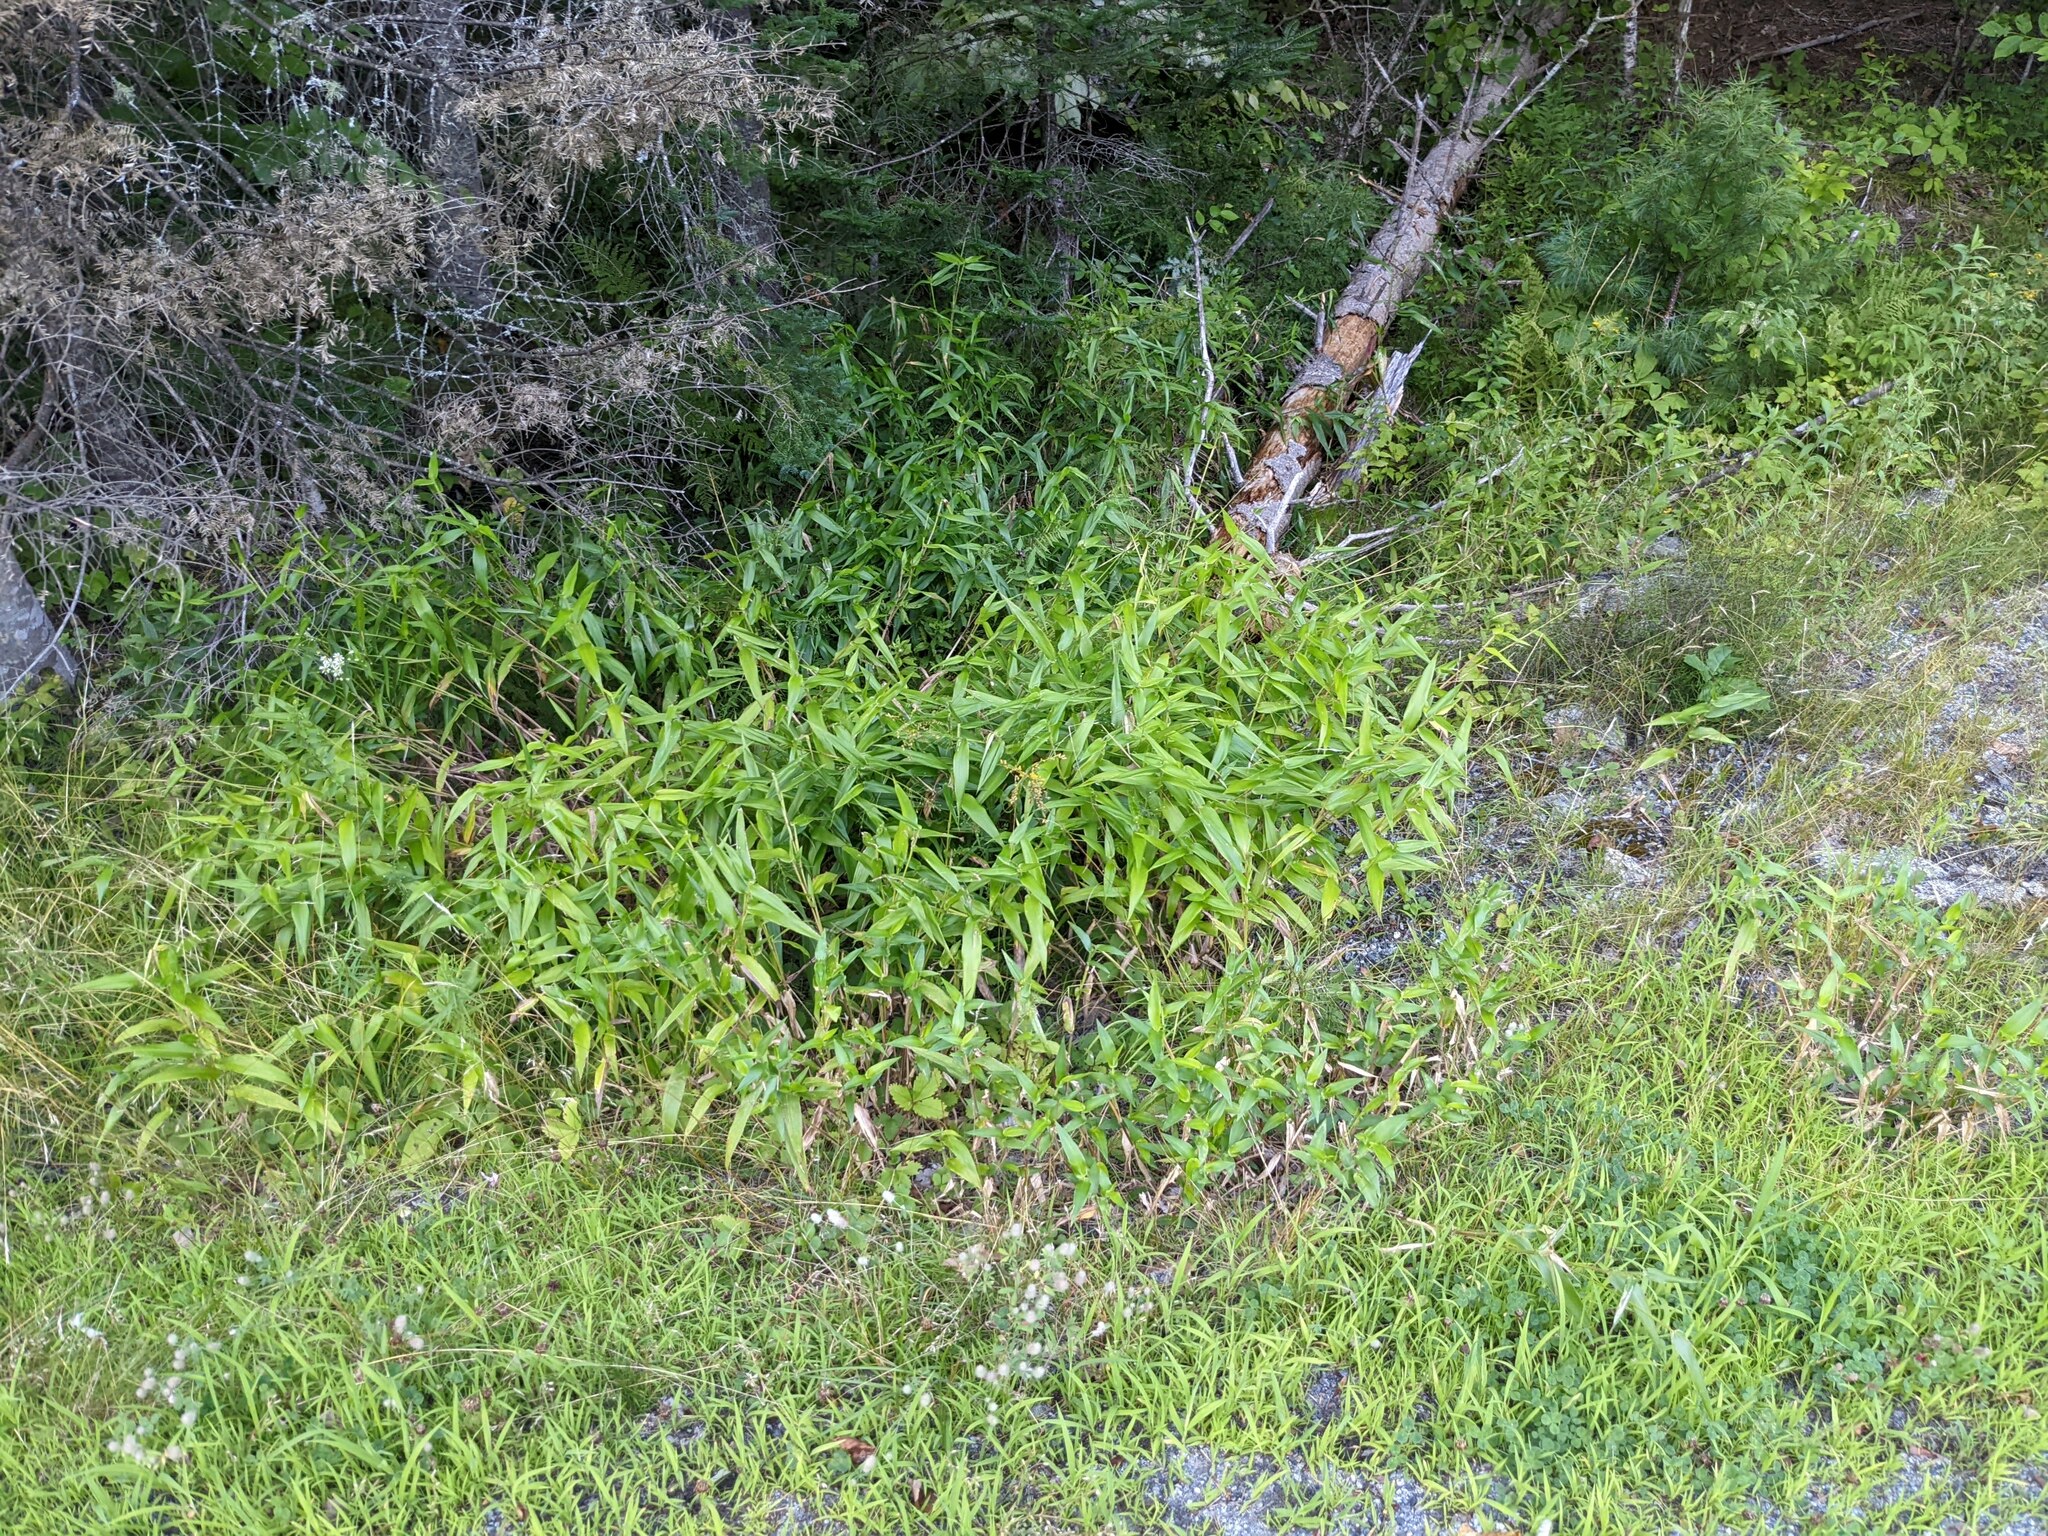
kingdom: Plantae
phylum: Tracheophyta
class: Liliopsida
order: Poales
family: Poaceae
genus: Dichanthelium
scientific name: Dichanthelium clandestinum
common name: Deer-tongue grass
